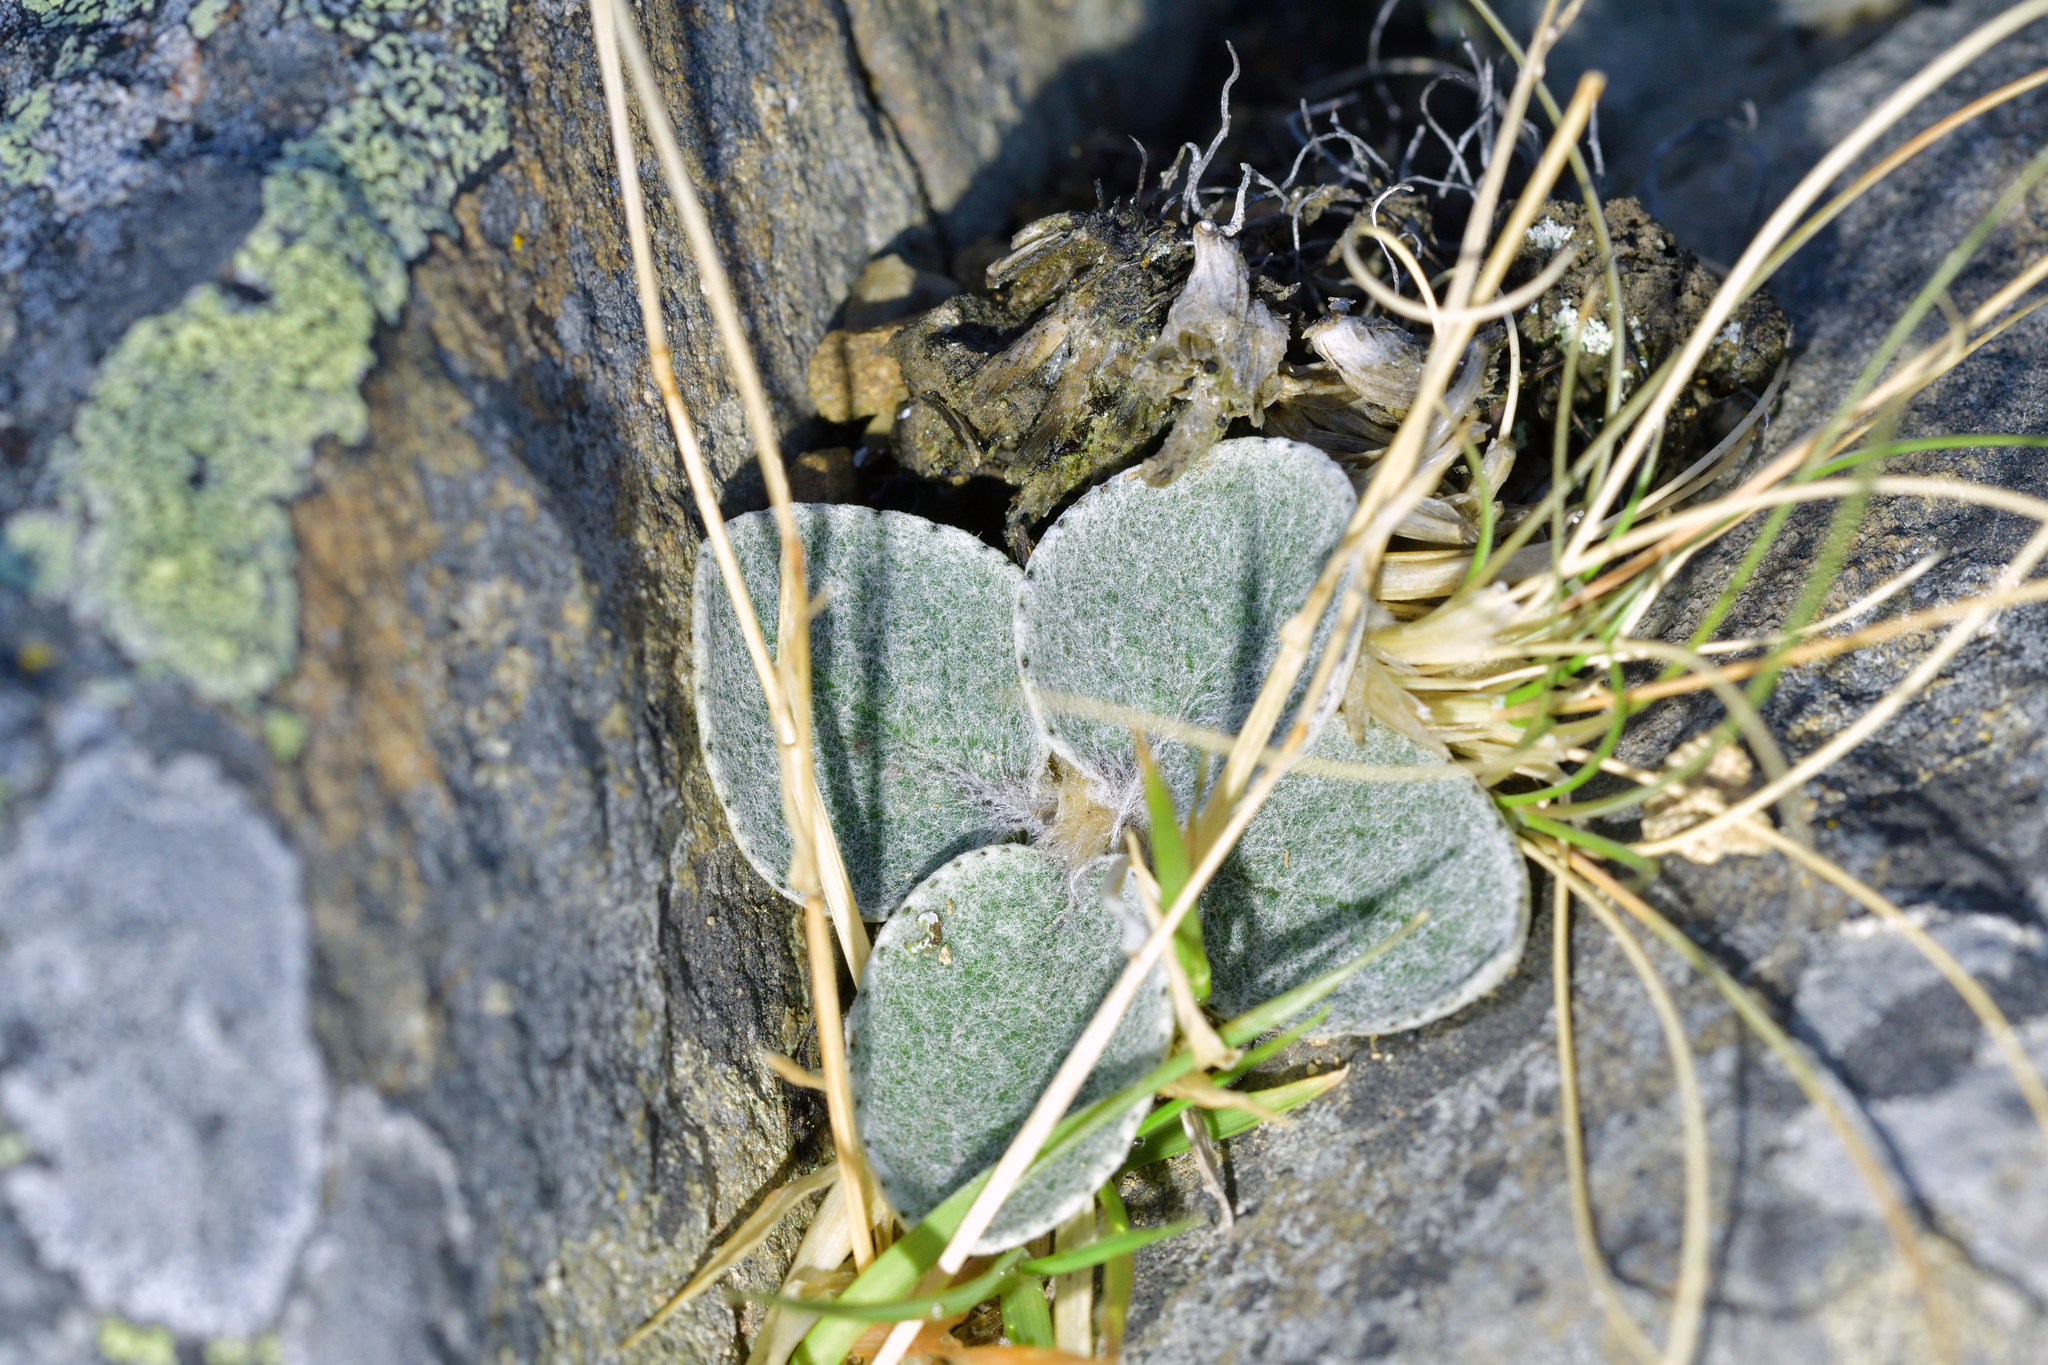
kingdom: Plantae
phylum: Tracheophyta
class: Magnoliopsida
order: Asterales
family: Asteraceae
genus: Brachyglottis
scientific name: Brachyglottis haastii
